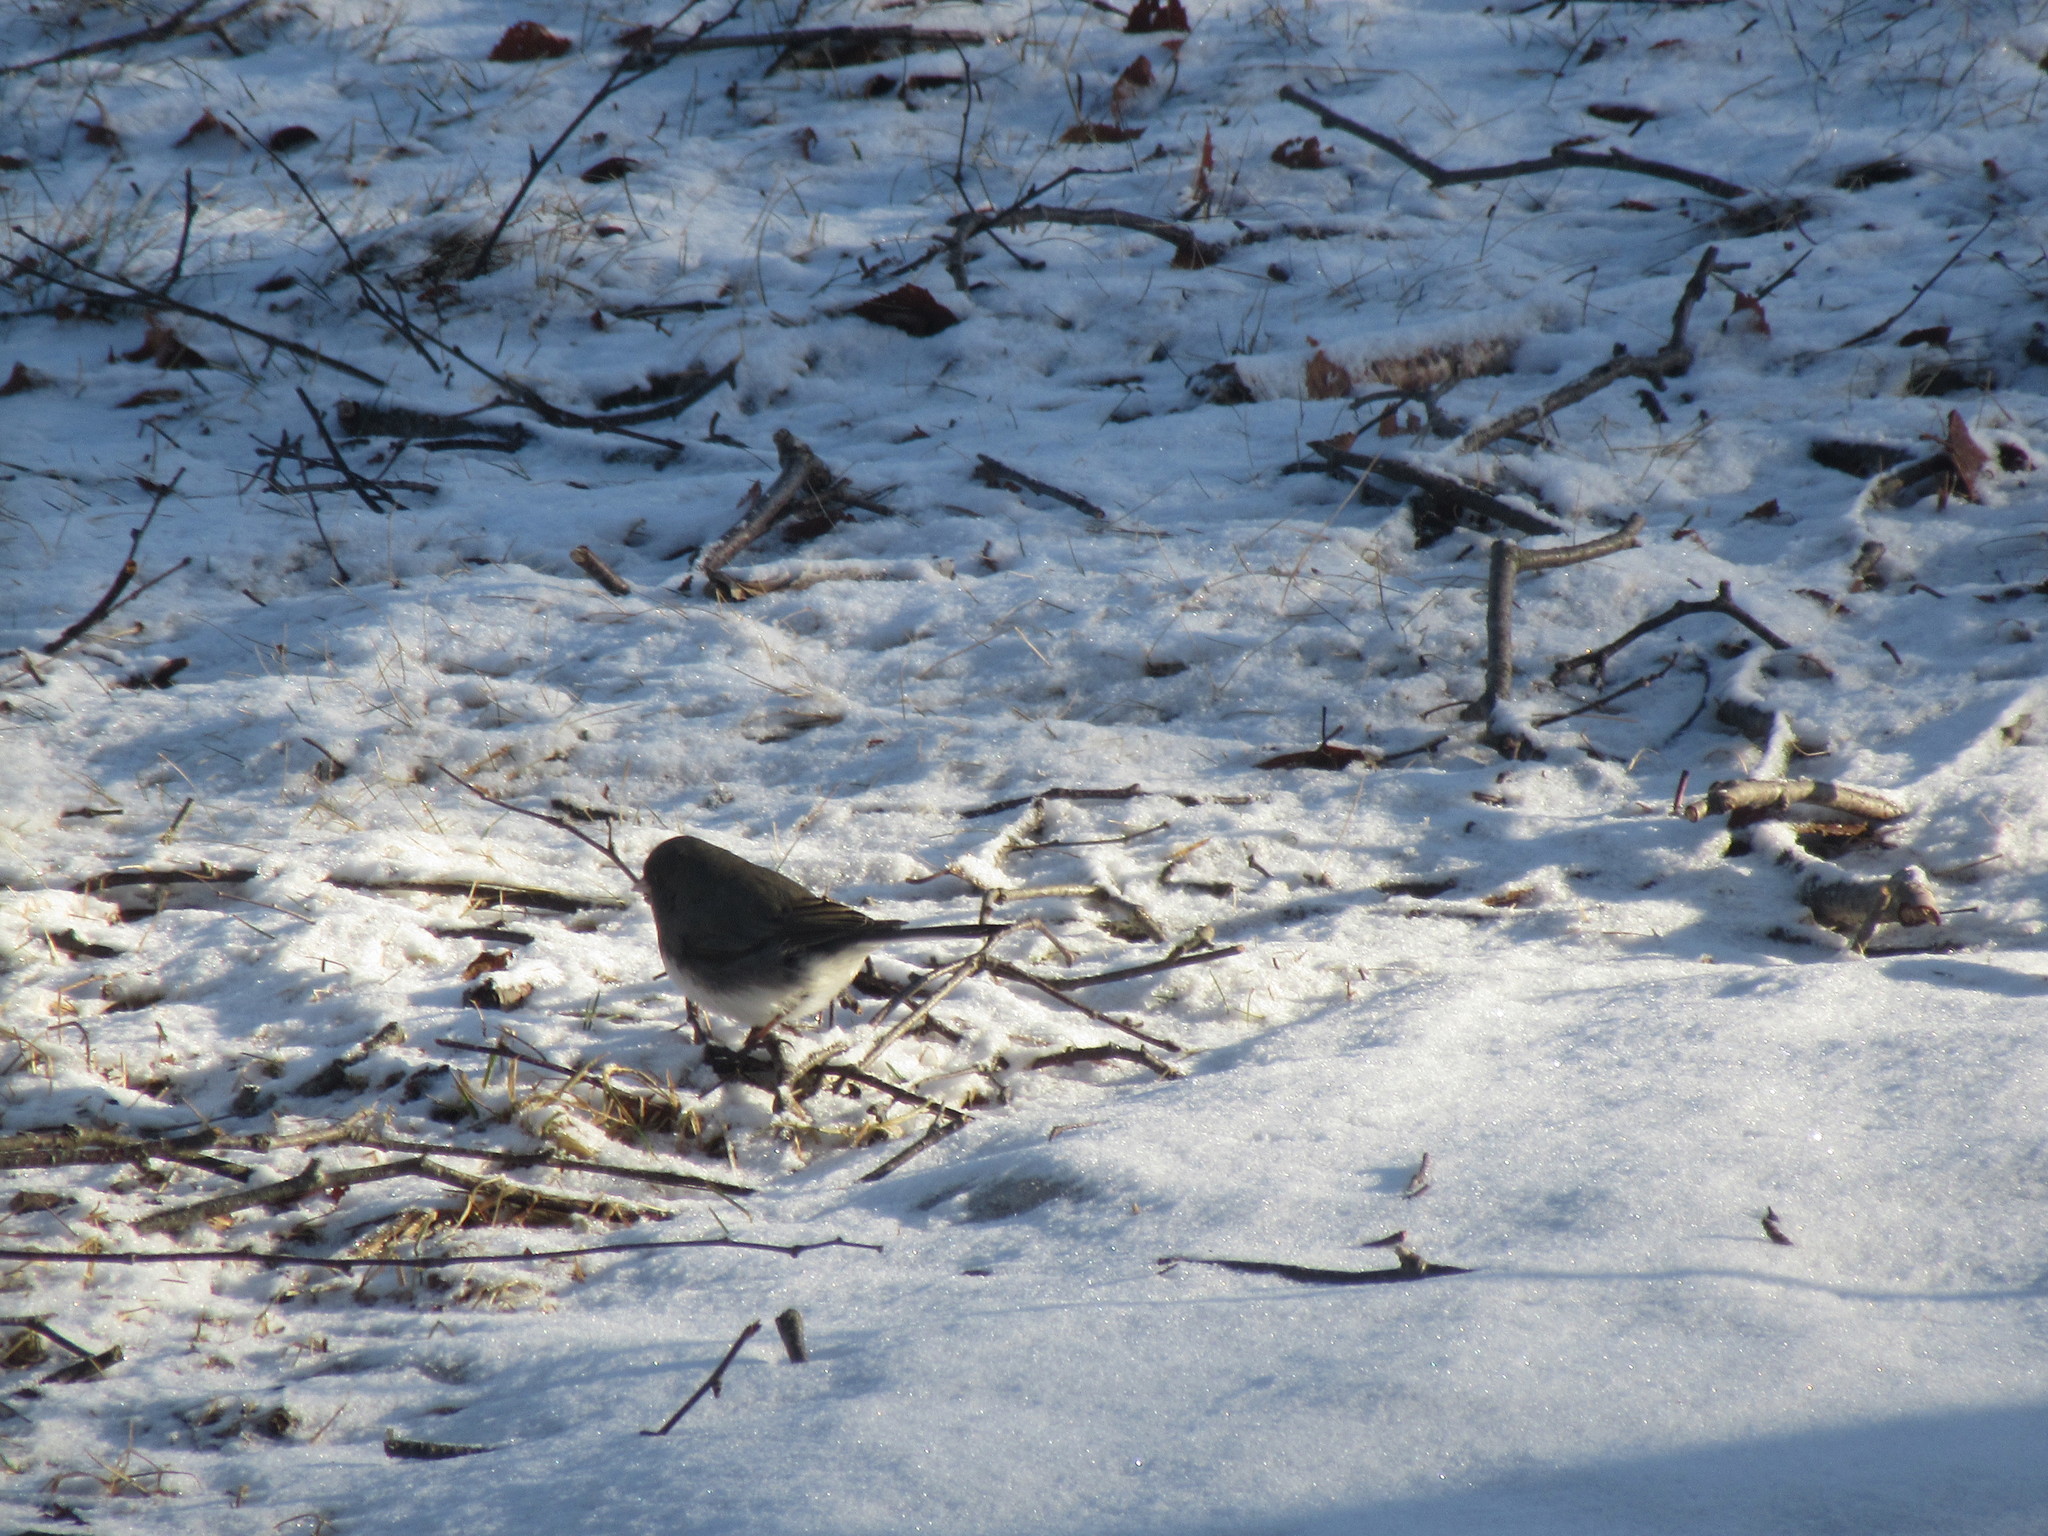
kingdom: Animalia
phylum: Chordata
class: Aves
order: Passeriformes
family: Passerellidae
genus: Junco
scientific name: Junco hyemalis
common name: Dark-eyed junco
